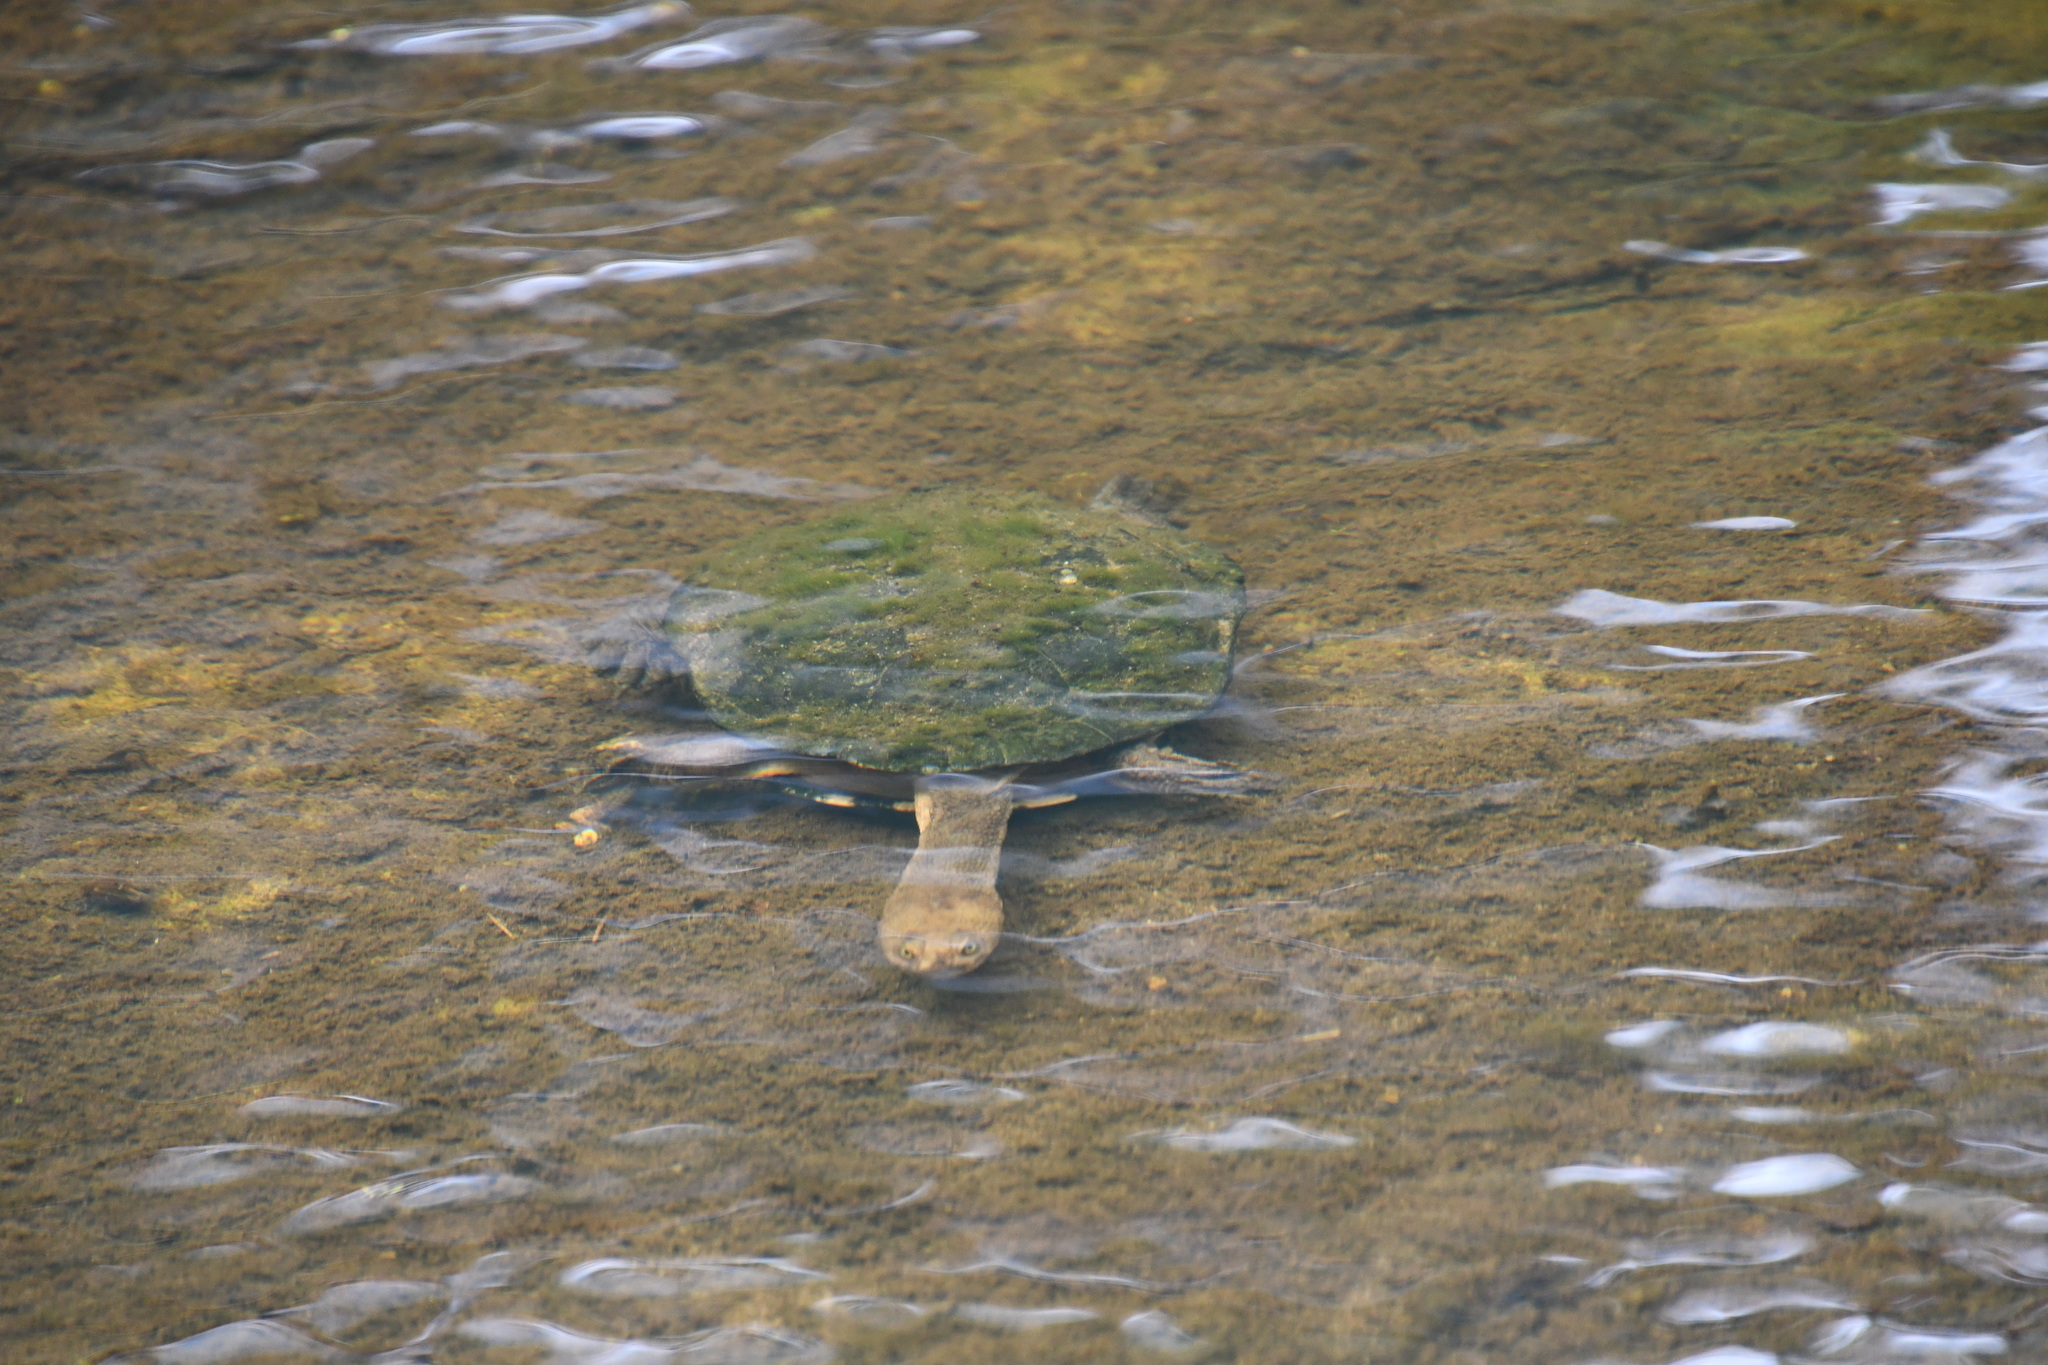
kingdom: Animalia
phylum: Chordata
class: Testudines
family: Chelidae
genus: Chelodina
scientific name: Chelodina longicollis
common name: Eastern snake-necked turtle
